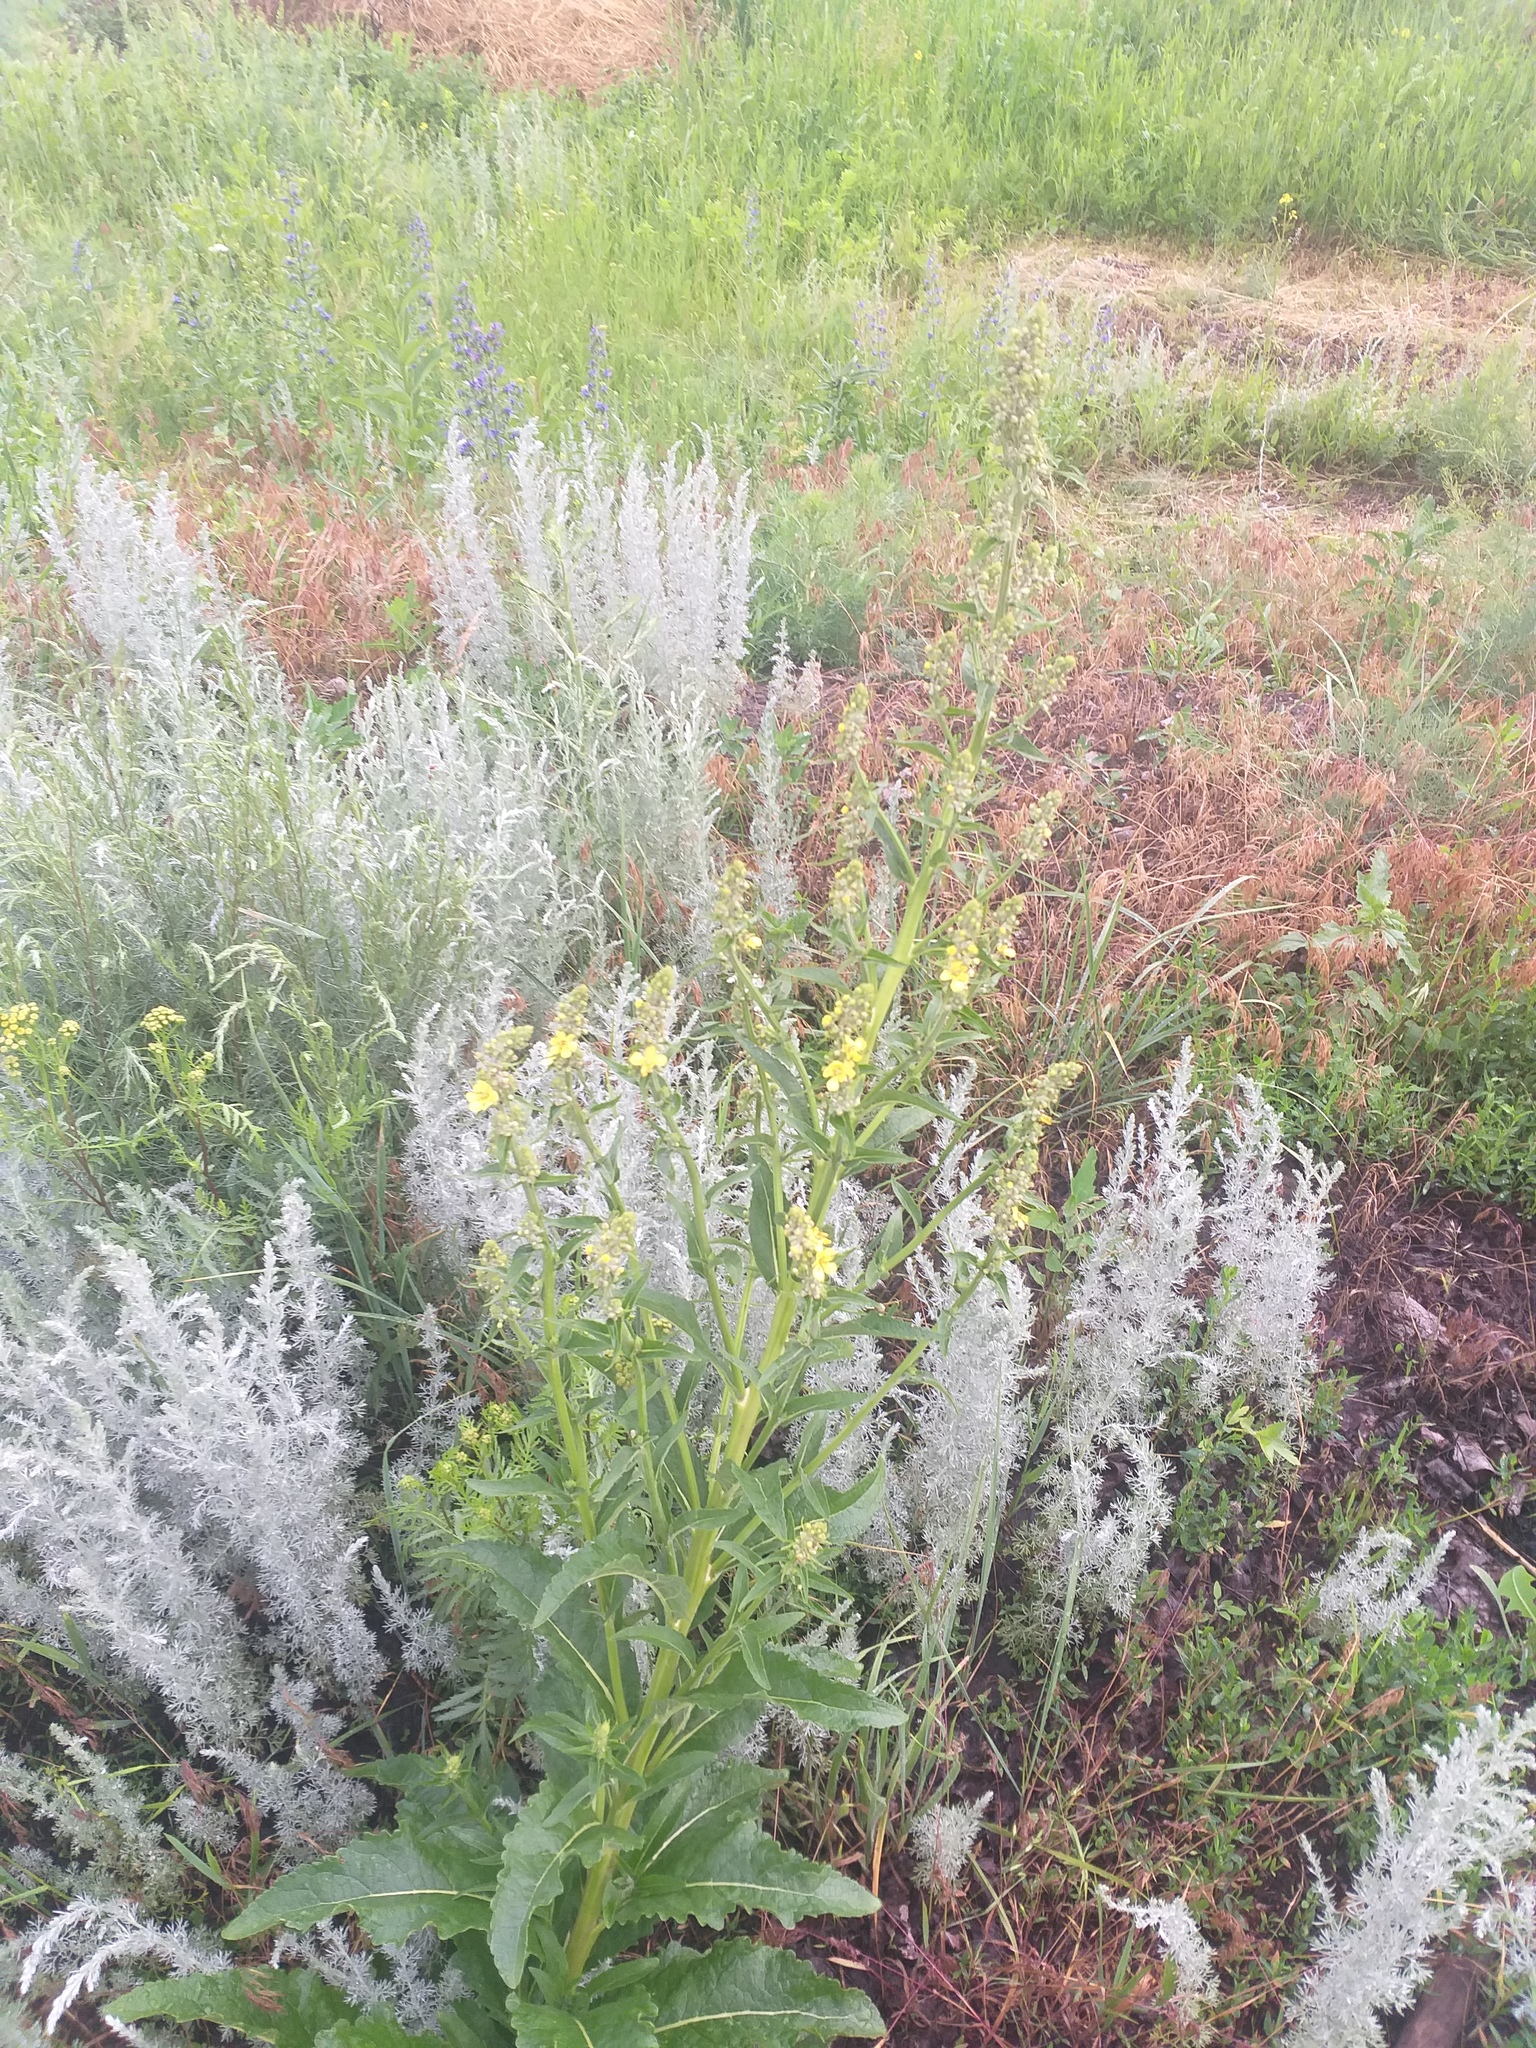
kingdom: Plantae
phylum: Tracheophyta
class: Magnoliopsida
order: Lamiales
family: Scrophulariaceae
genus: Verbascum
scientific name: Verbascum lychnitis
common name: White mullein
